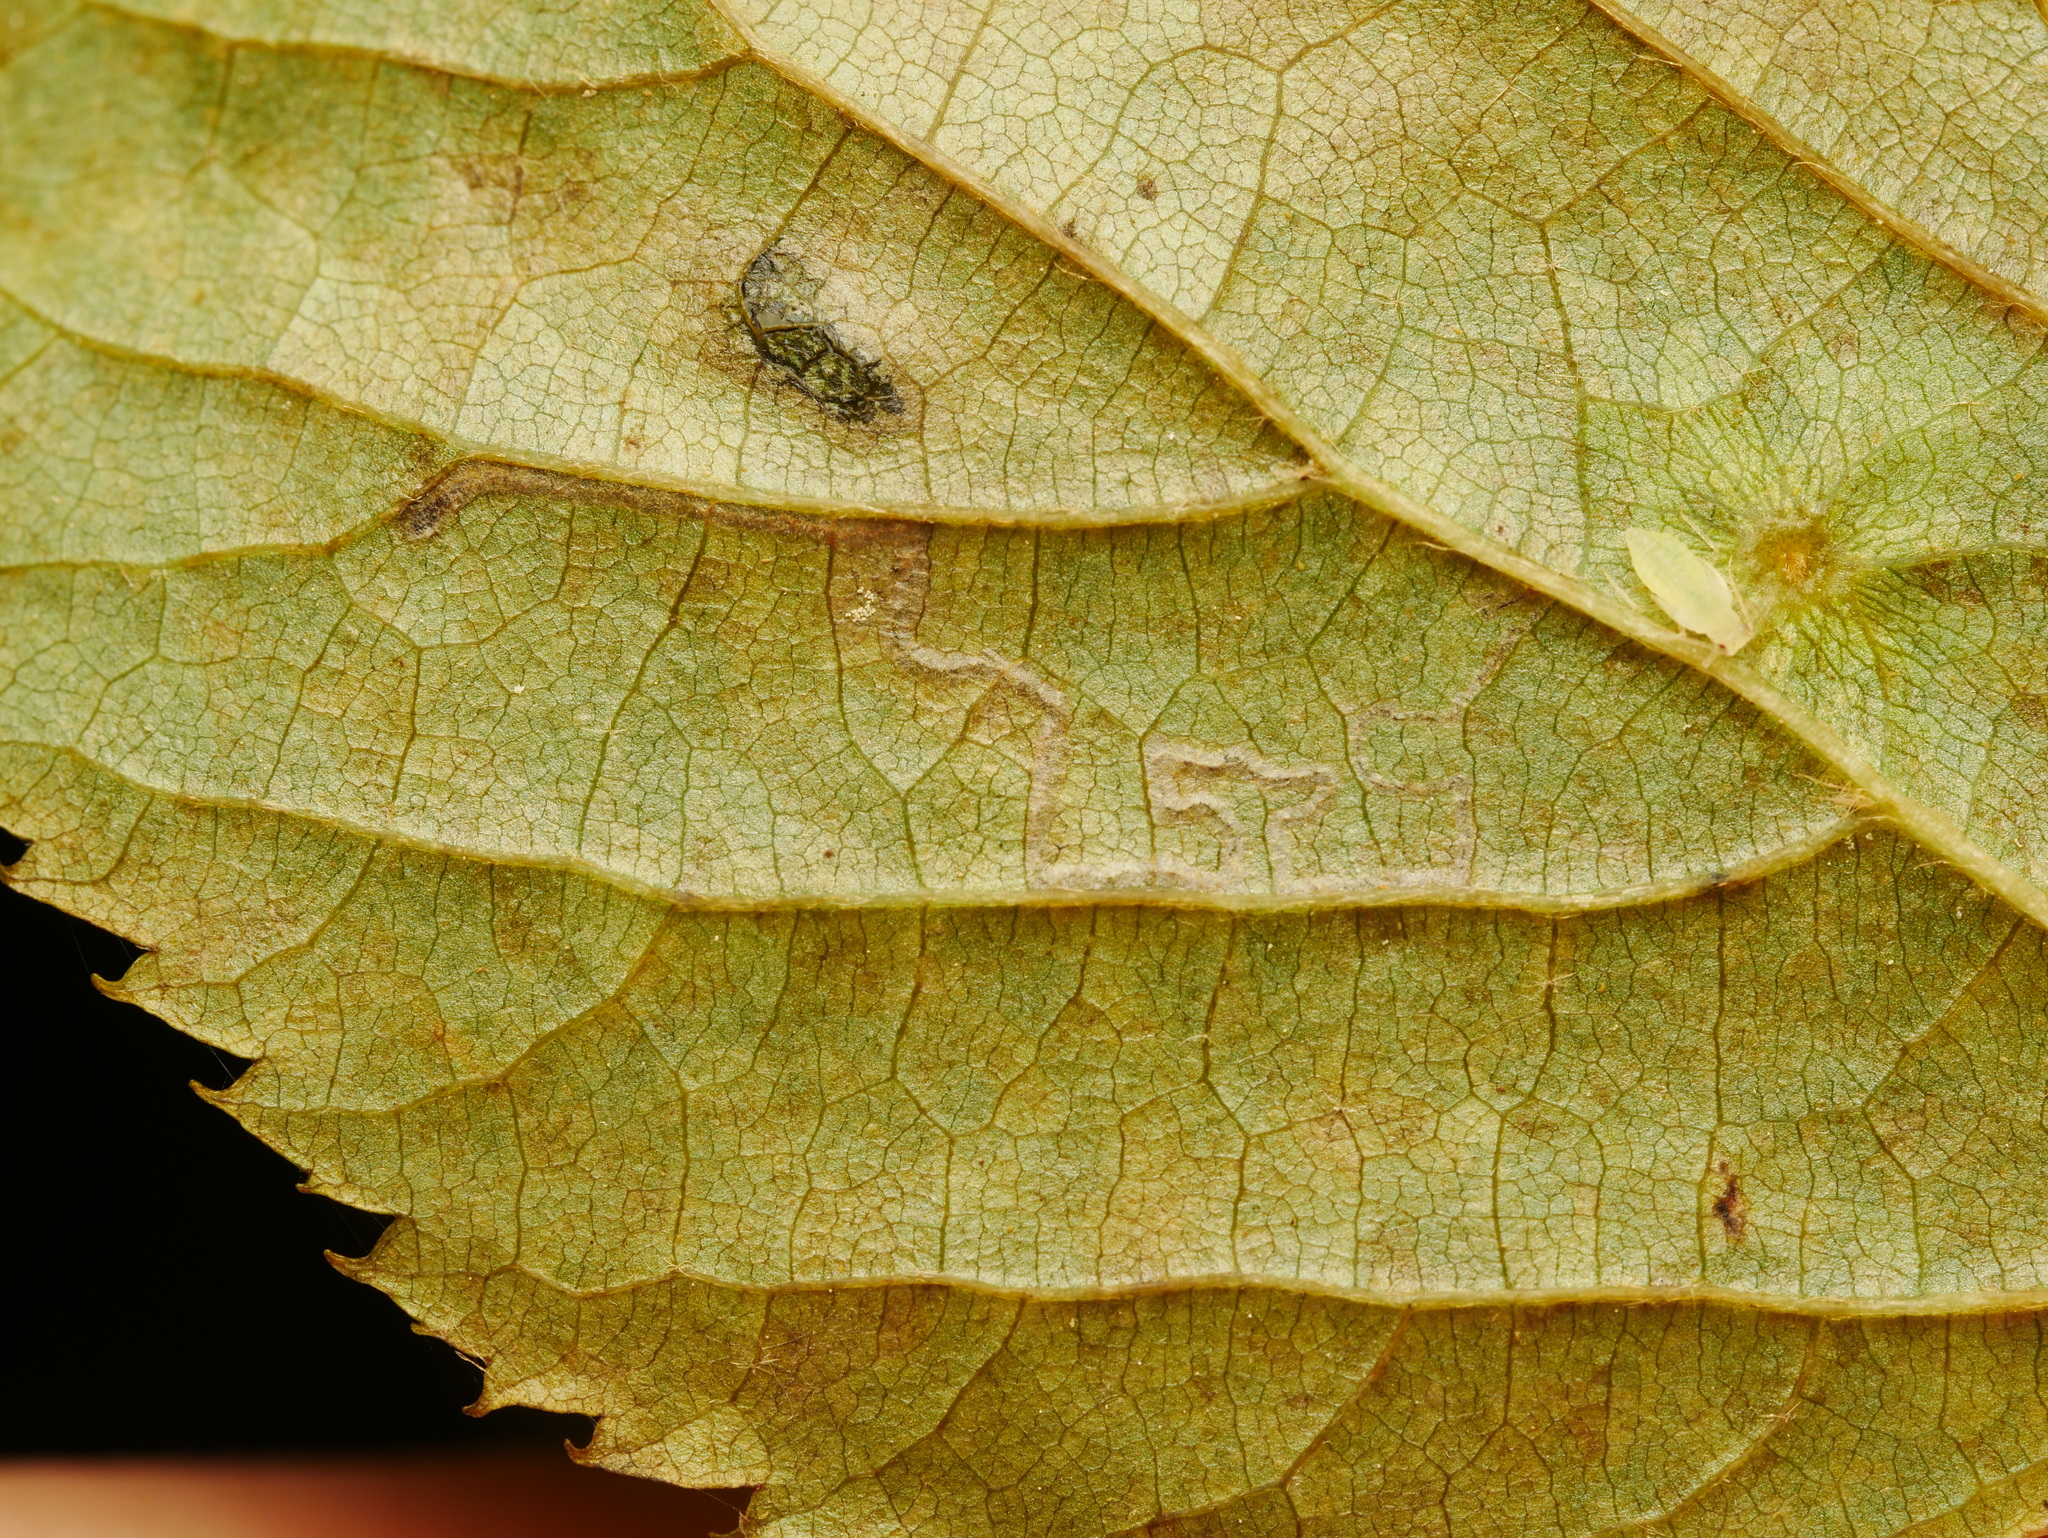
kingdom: Animalia
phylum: Arthropoda
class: Insecta
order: Lepidoptera
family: Nepticulidae
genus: Stigmella
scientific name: Stigmella tiliae
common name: Lime pigmy
